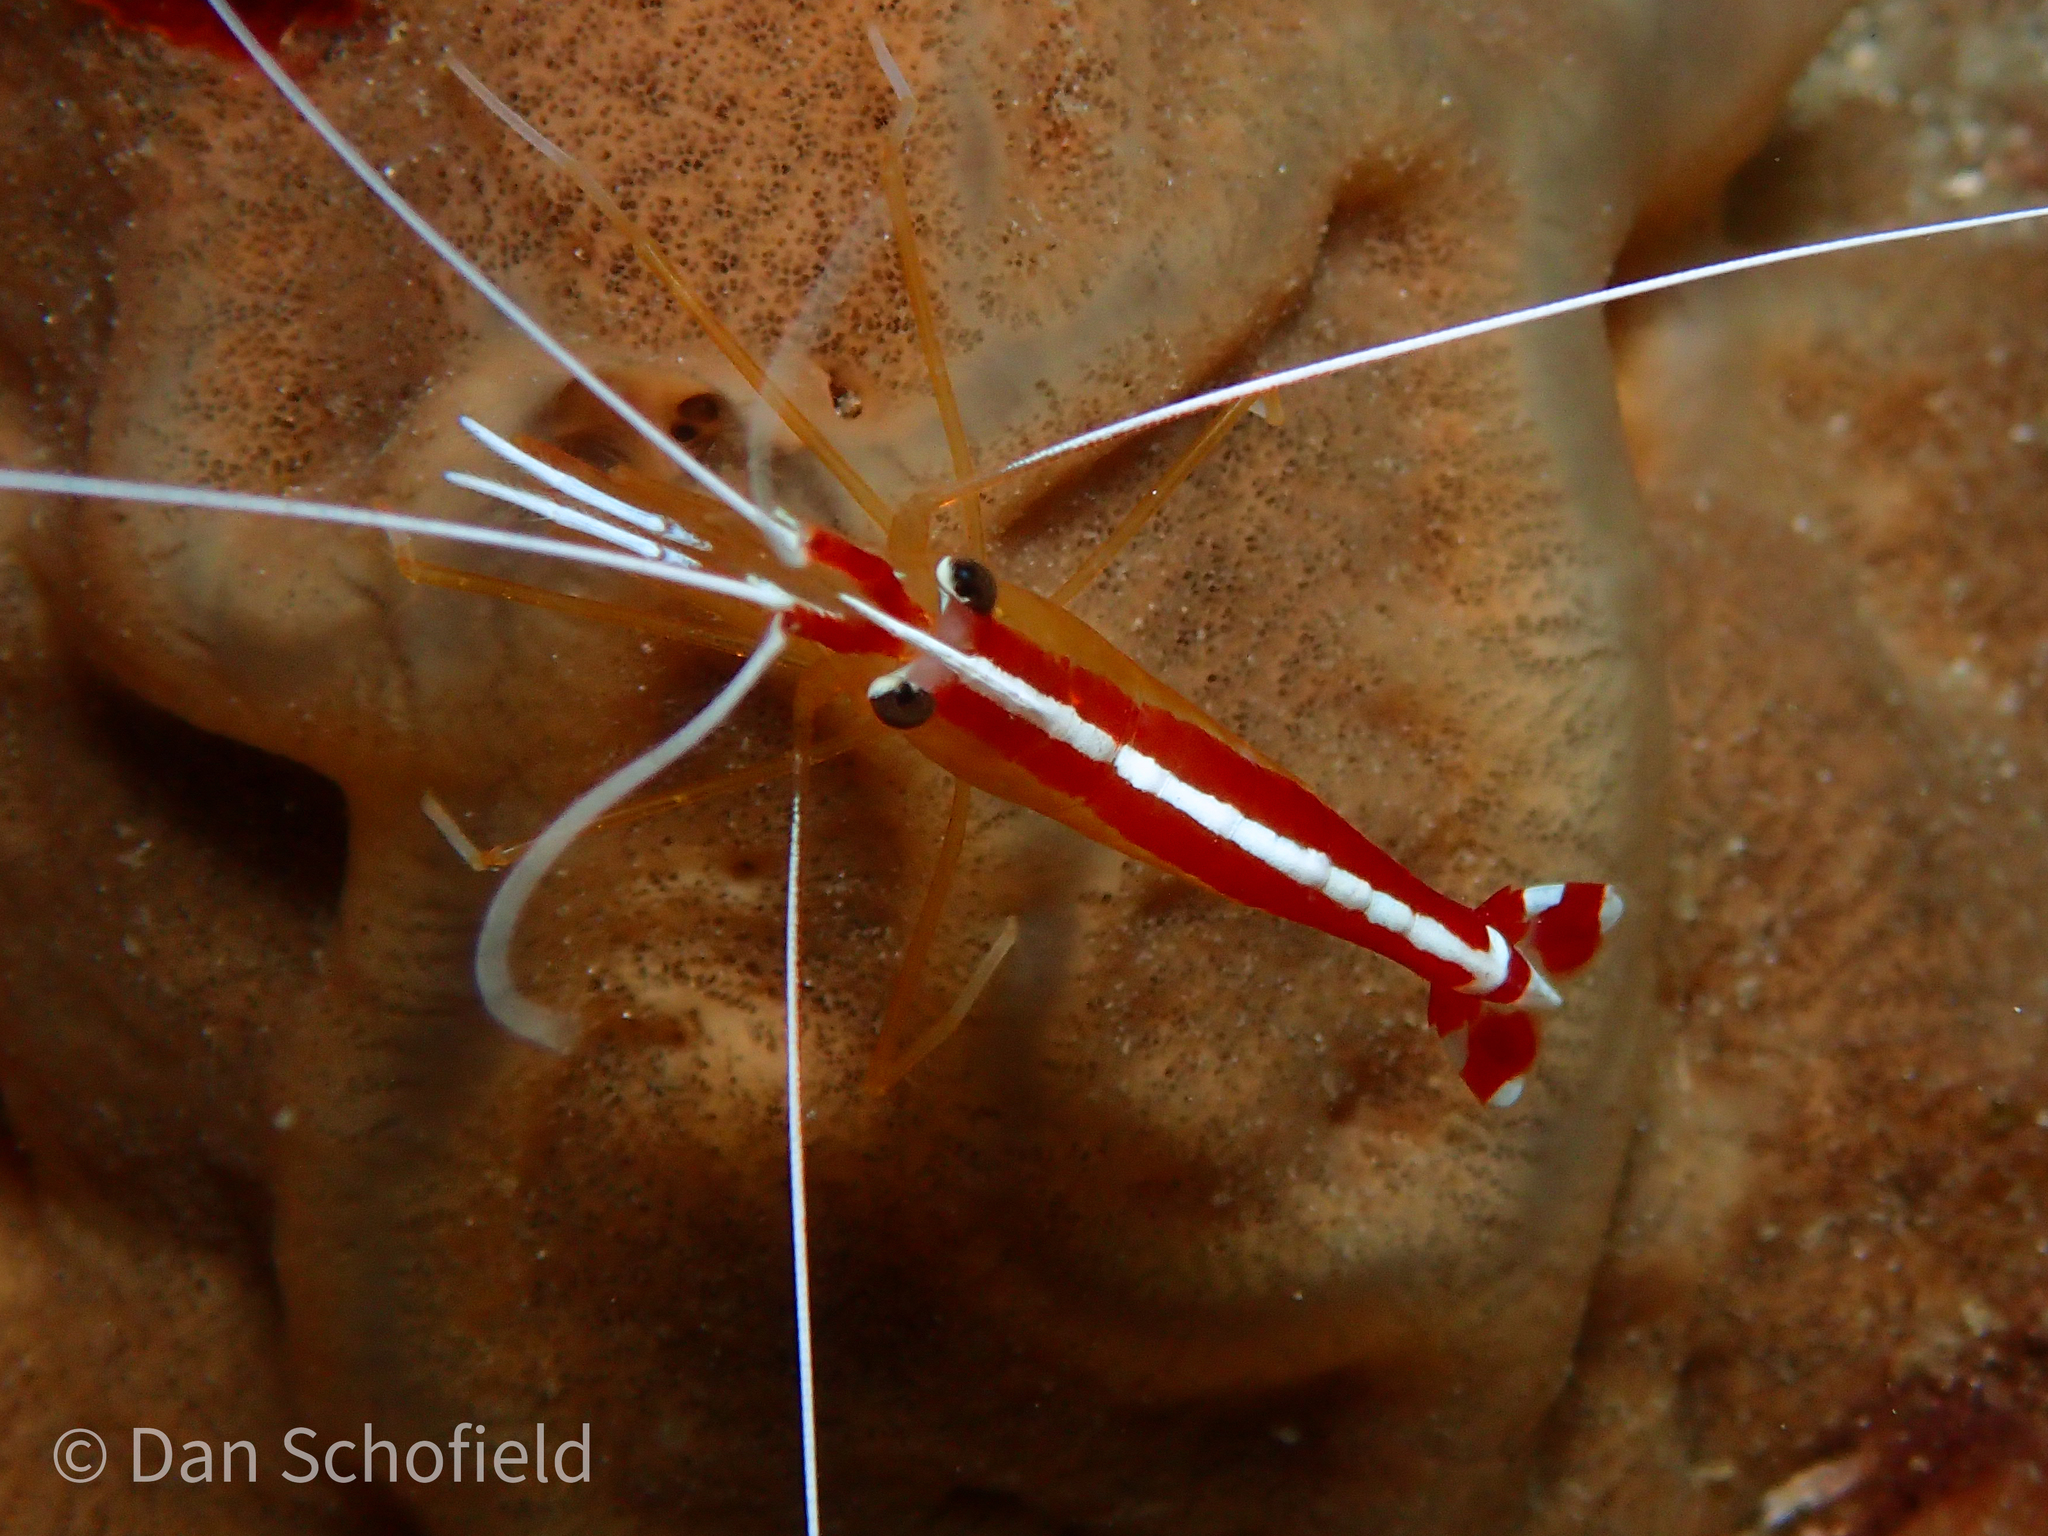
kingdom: Animalia
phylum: Arthropoda
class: Malacostraca
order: Decapoda
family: Lysmatidae
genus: Lysmata
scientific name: Lysmata amboinensis
